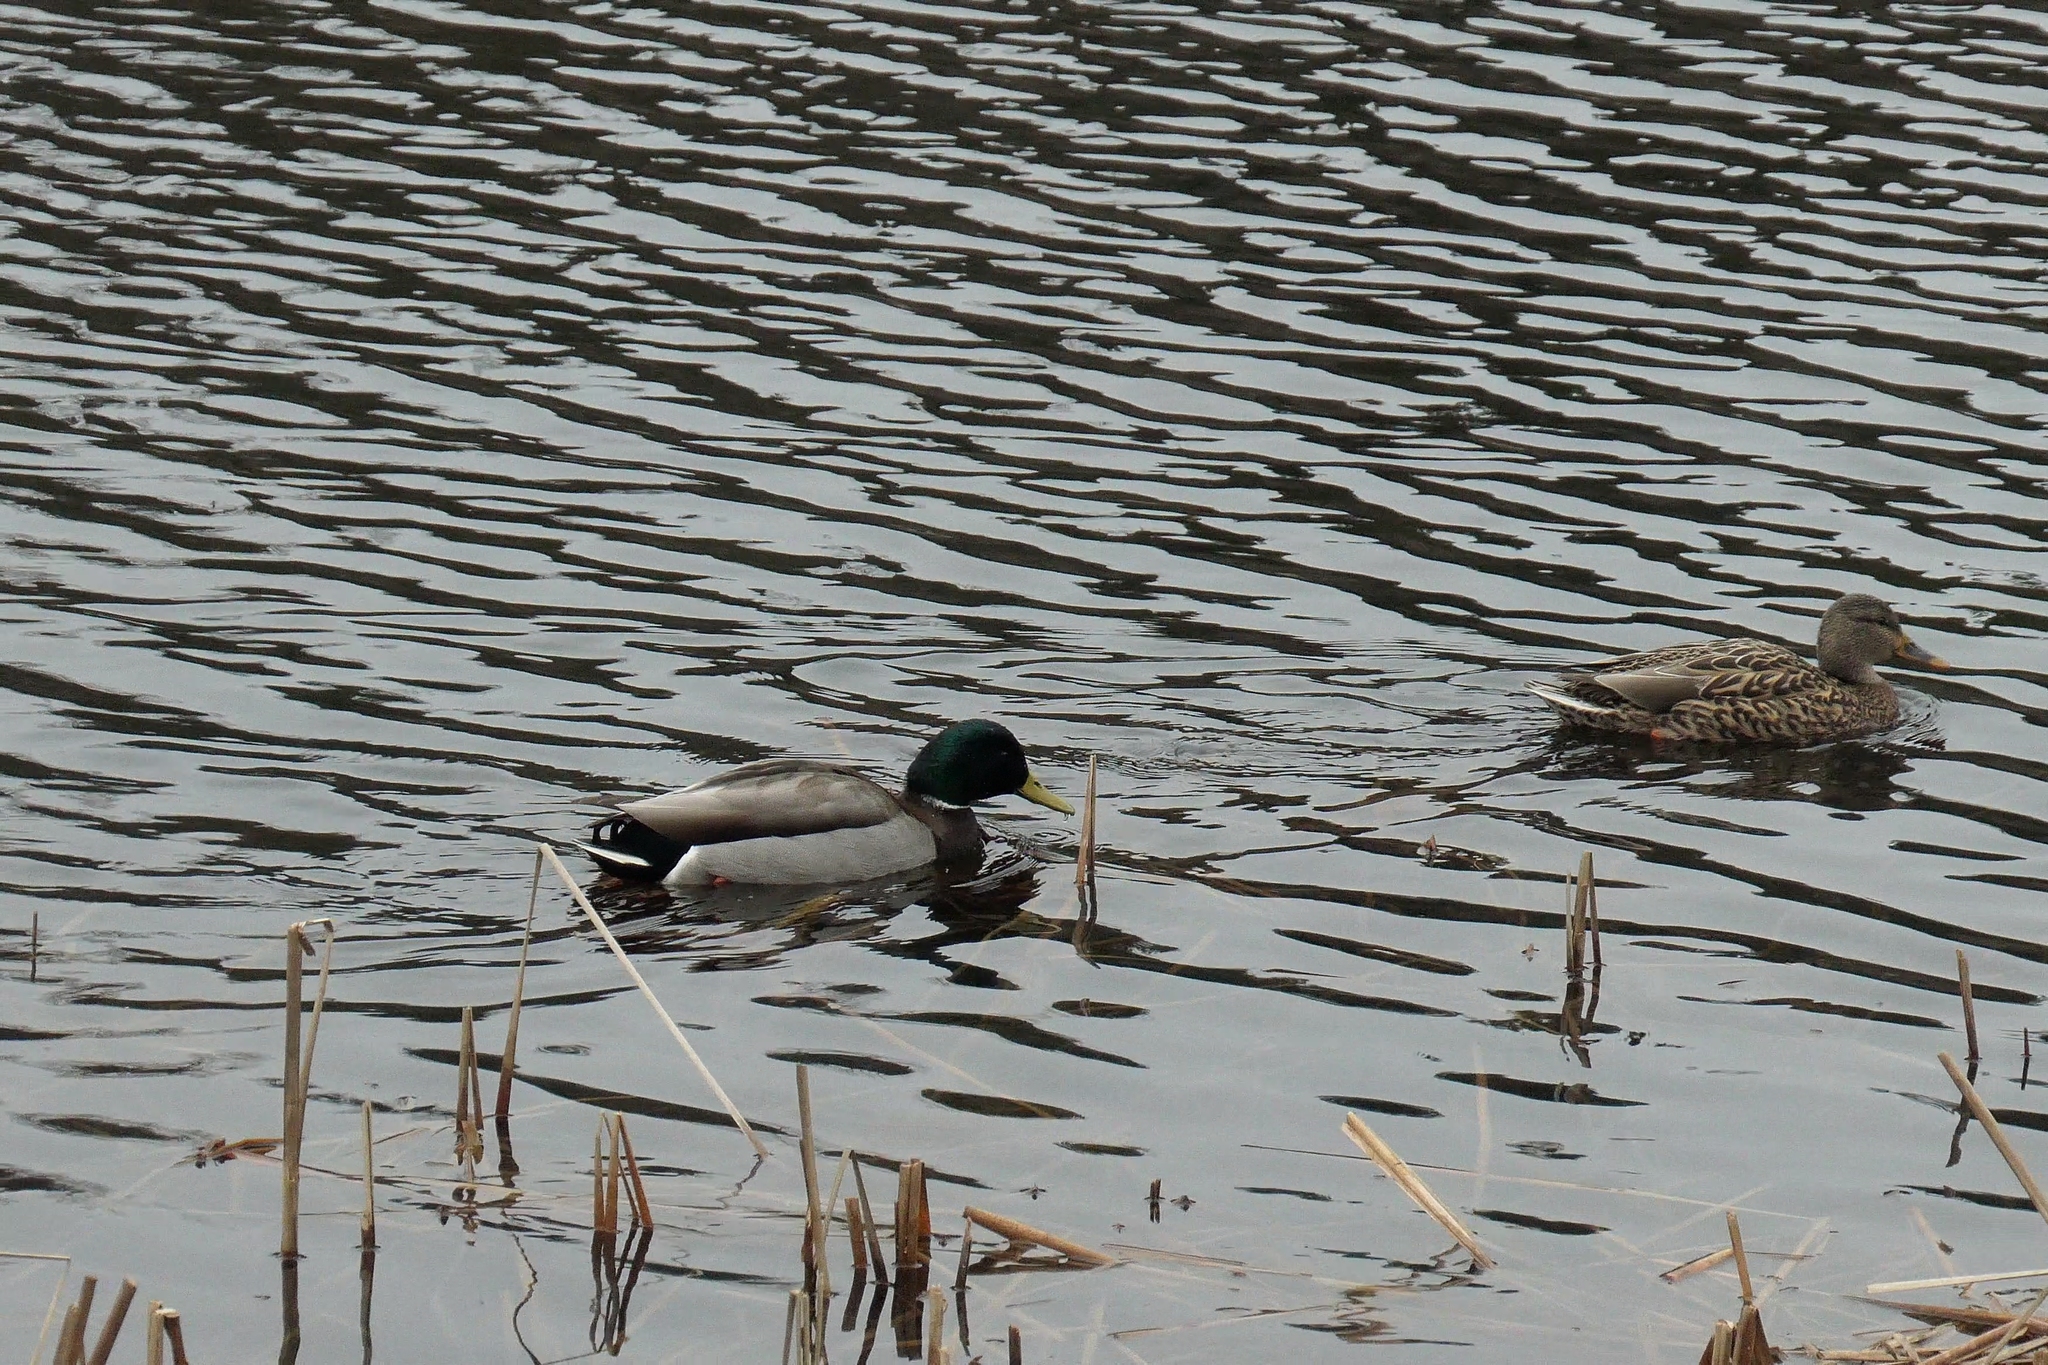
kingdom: Animalia
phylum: Chordata
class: Aves
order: Anseriformes
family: Anatidae
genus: Anas
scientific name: Anas platyrhynchos
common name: Mallard
